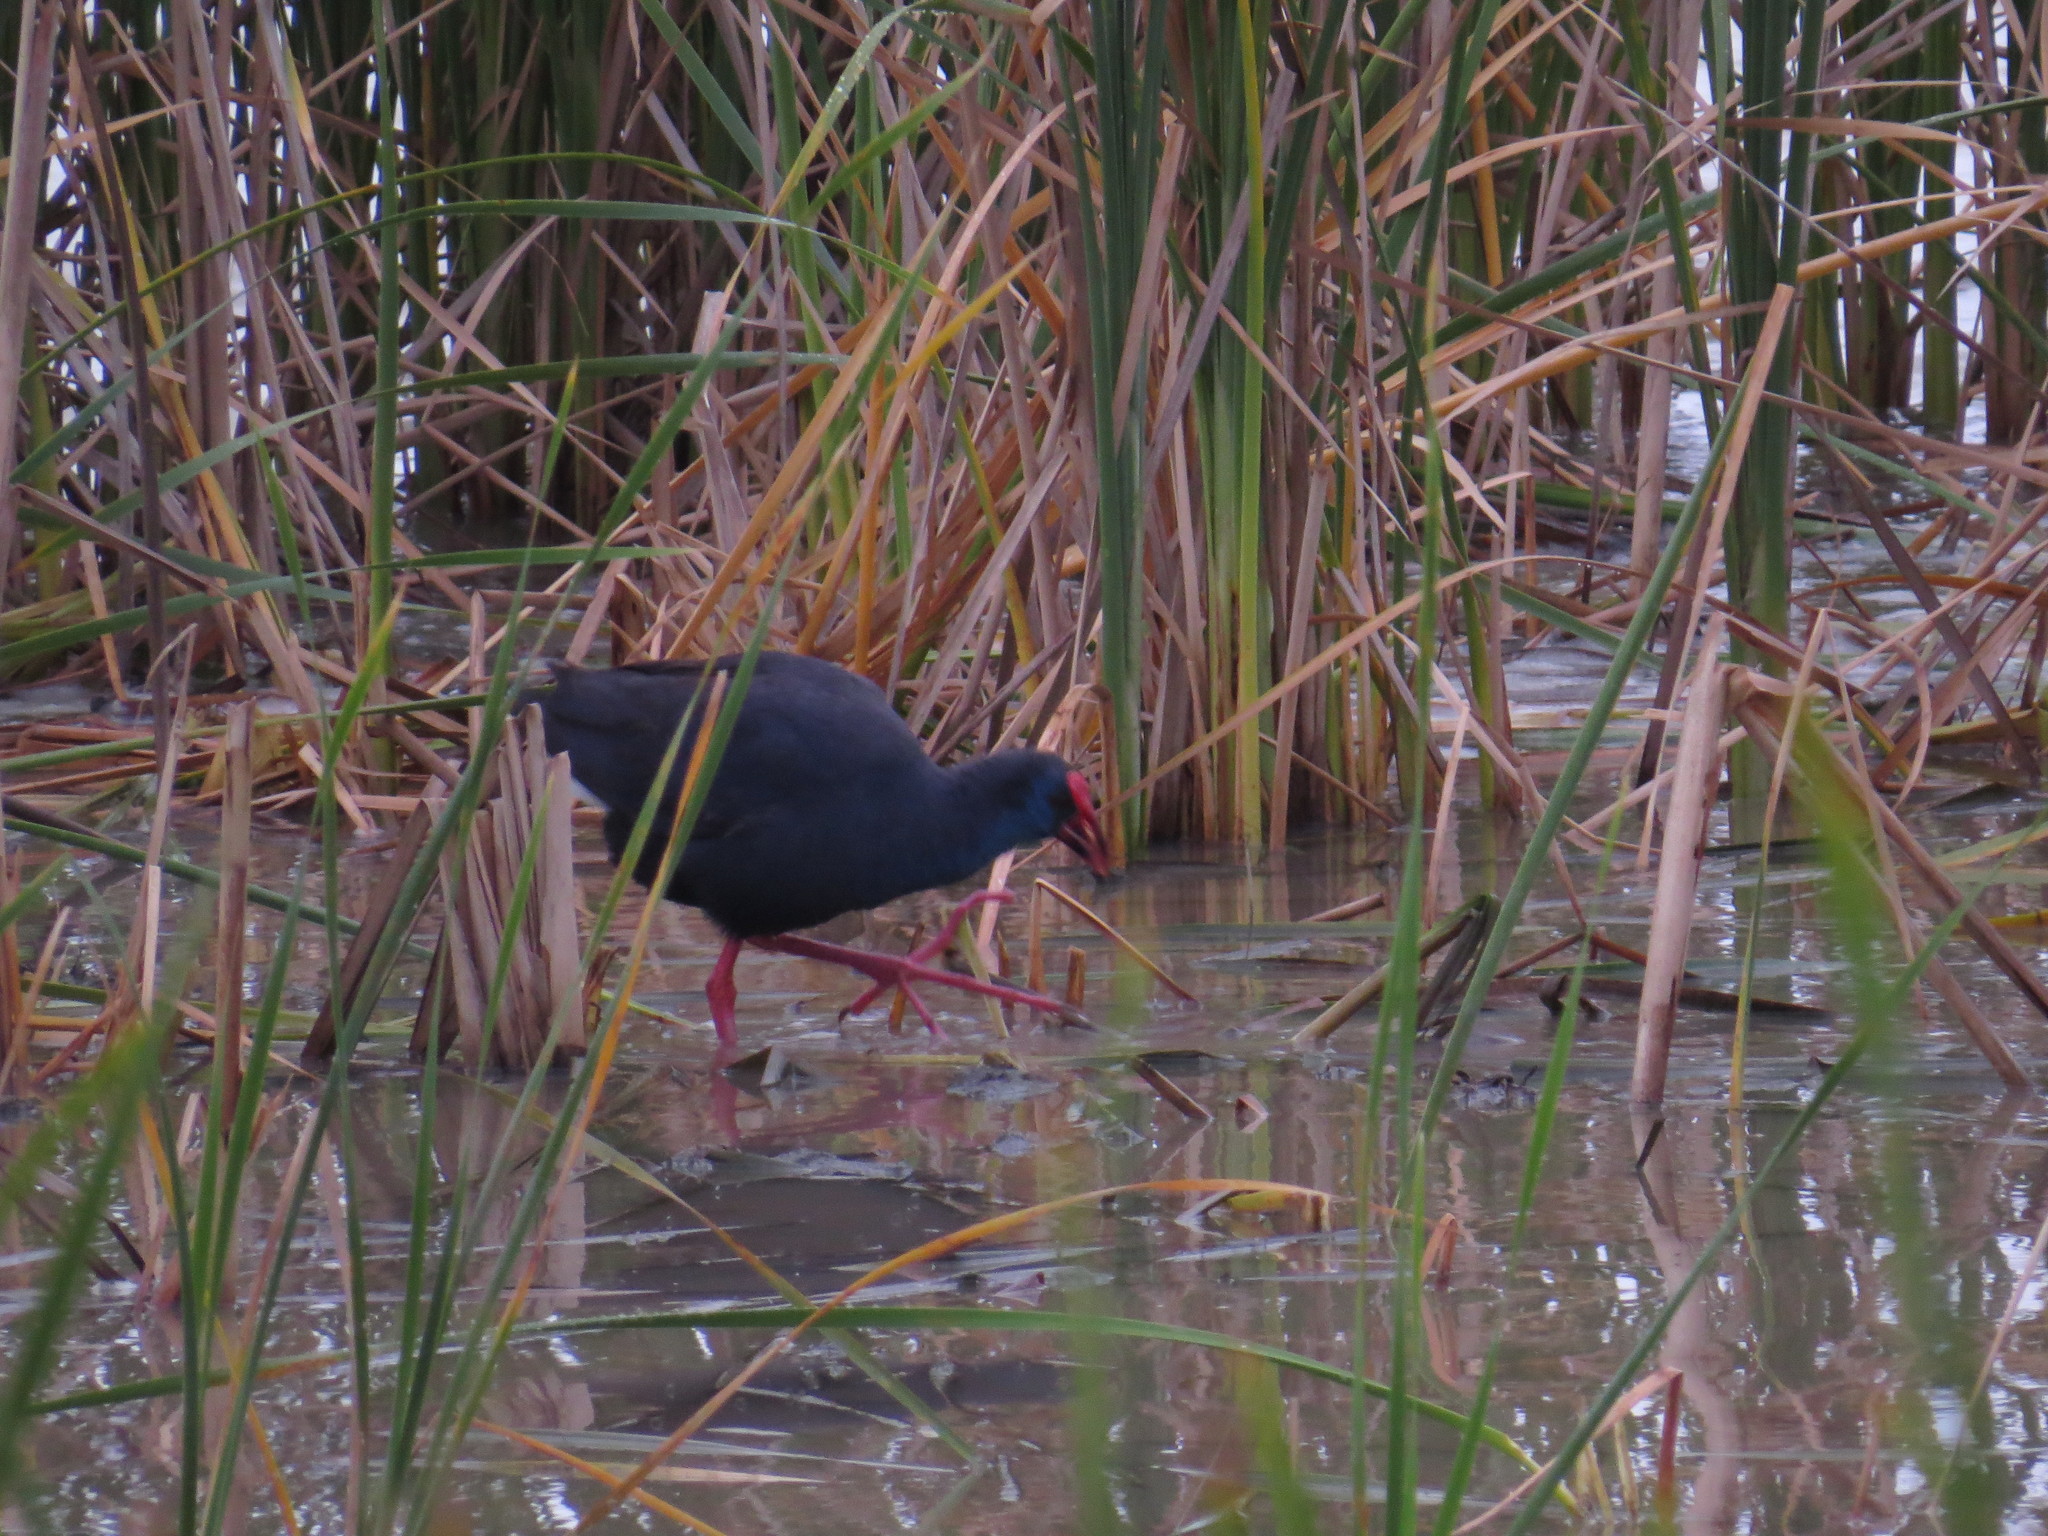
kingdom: Animalia
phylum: Chordata
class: Aves
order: Gruiformes
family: Rallidae
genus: Porphyrio
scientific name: Porphyrio porphyrio
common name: Purple swamphen
